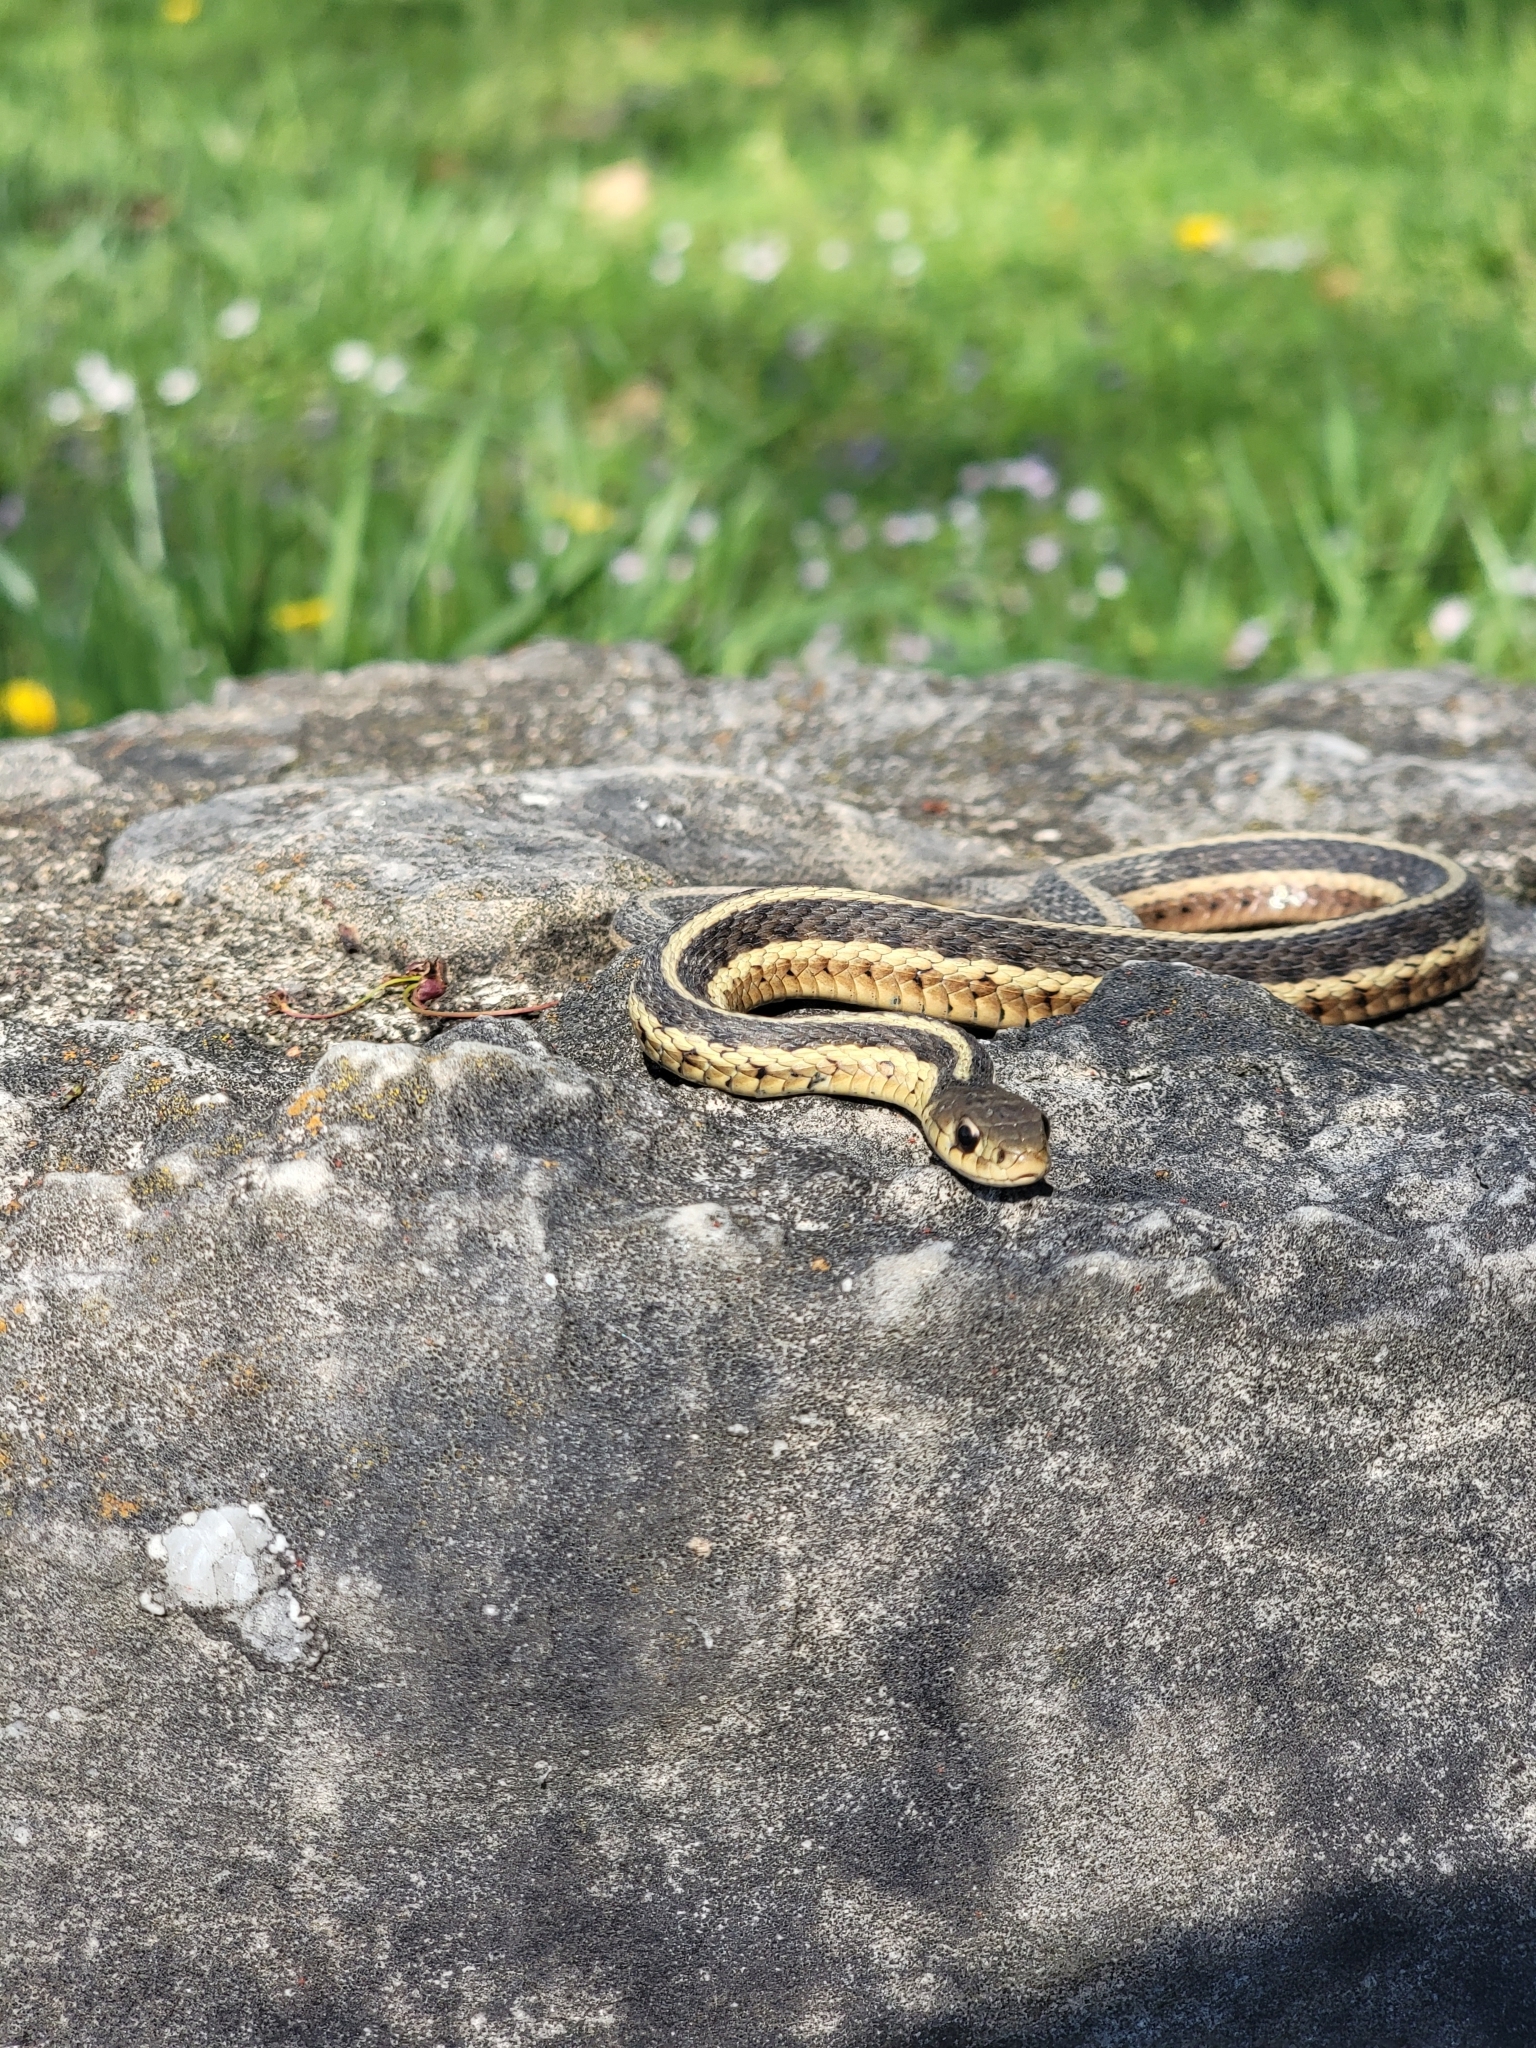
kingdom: Animalia
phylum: Chordata
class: Squamata
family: Colubridae
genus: Thamnophis
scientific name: Thamnophis sirtalis
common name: Common garter snake
